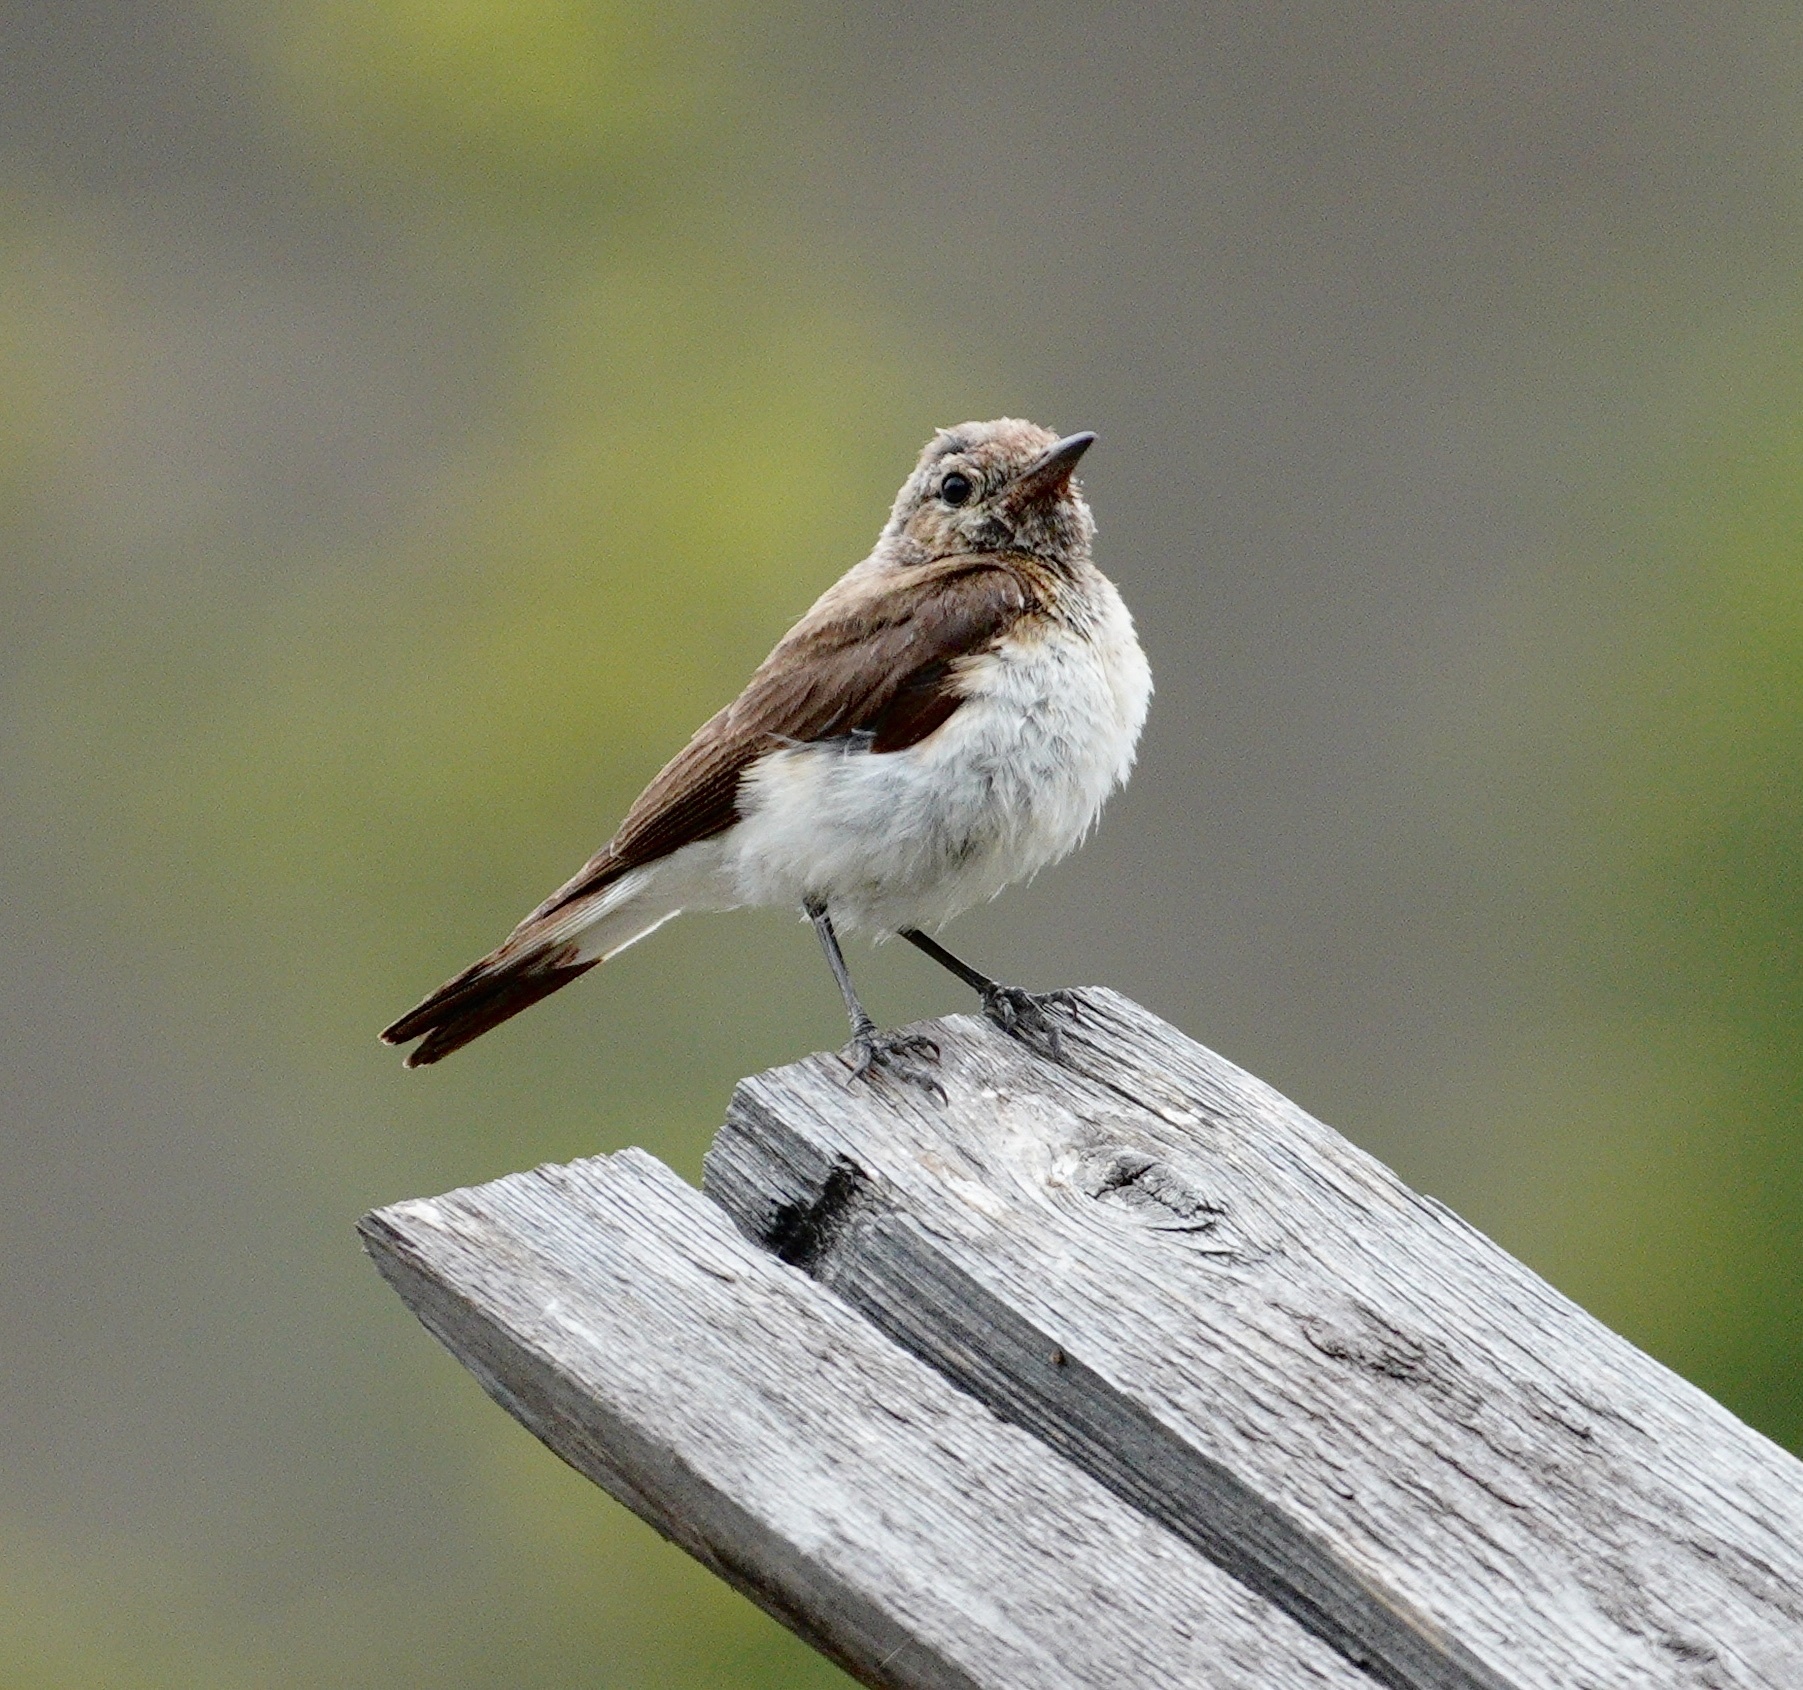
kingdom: Animalia
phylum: Chordata
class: Aves
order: Passeriformes
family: Muscicapidae
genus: Oenanthe
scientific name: Oenanthe pleschanka
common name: Pied wheatear
